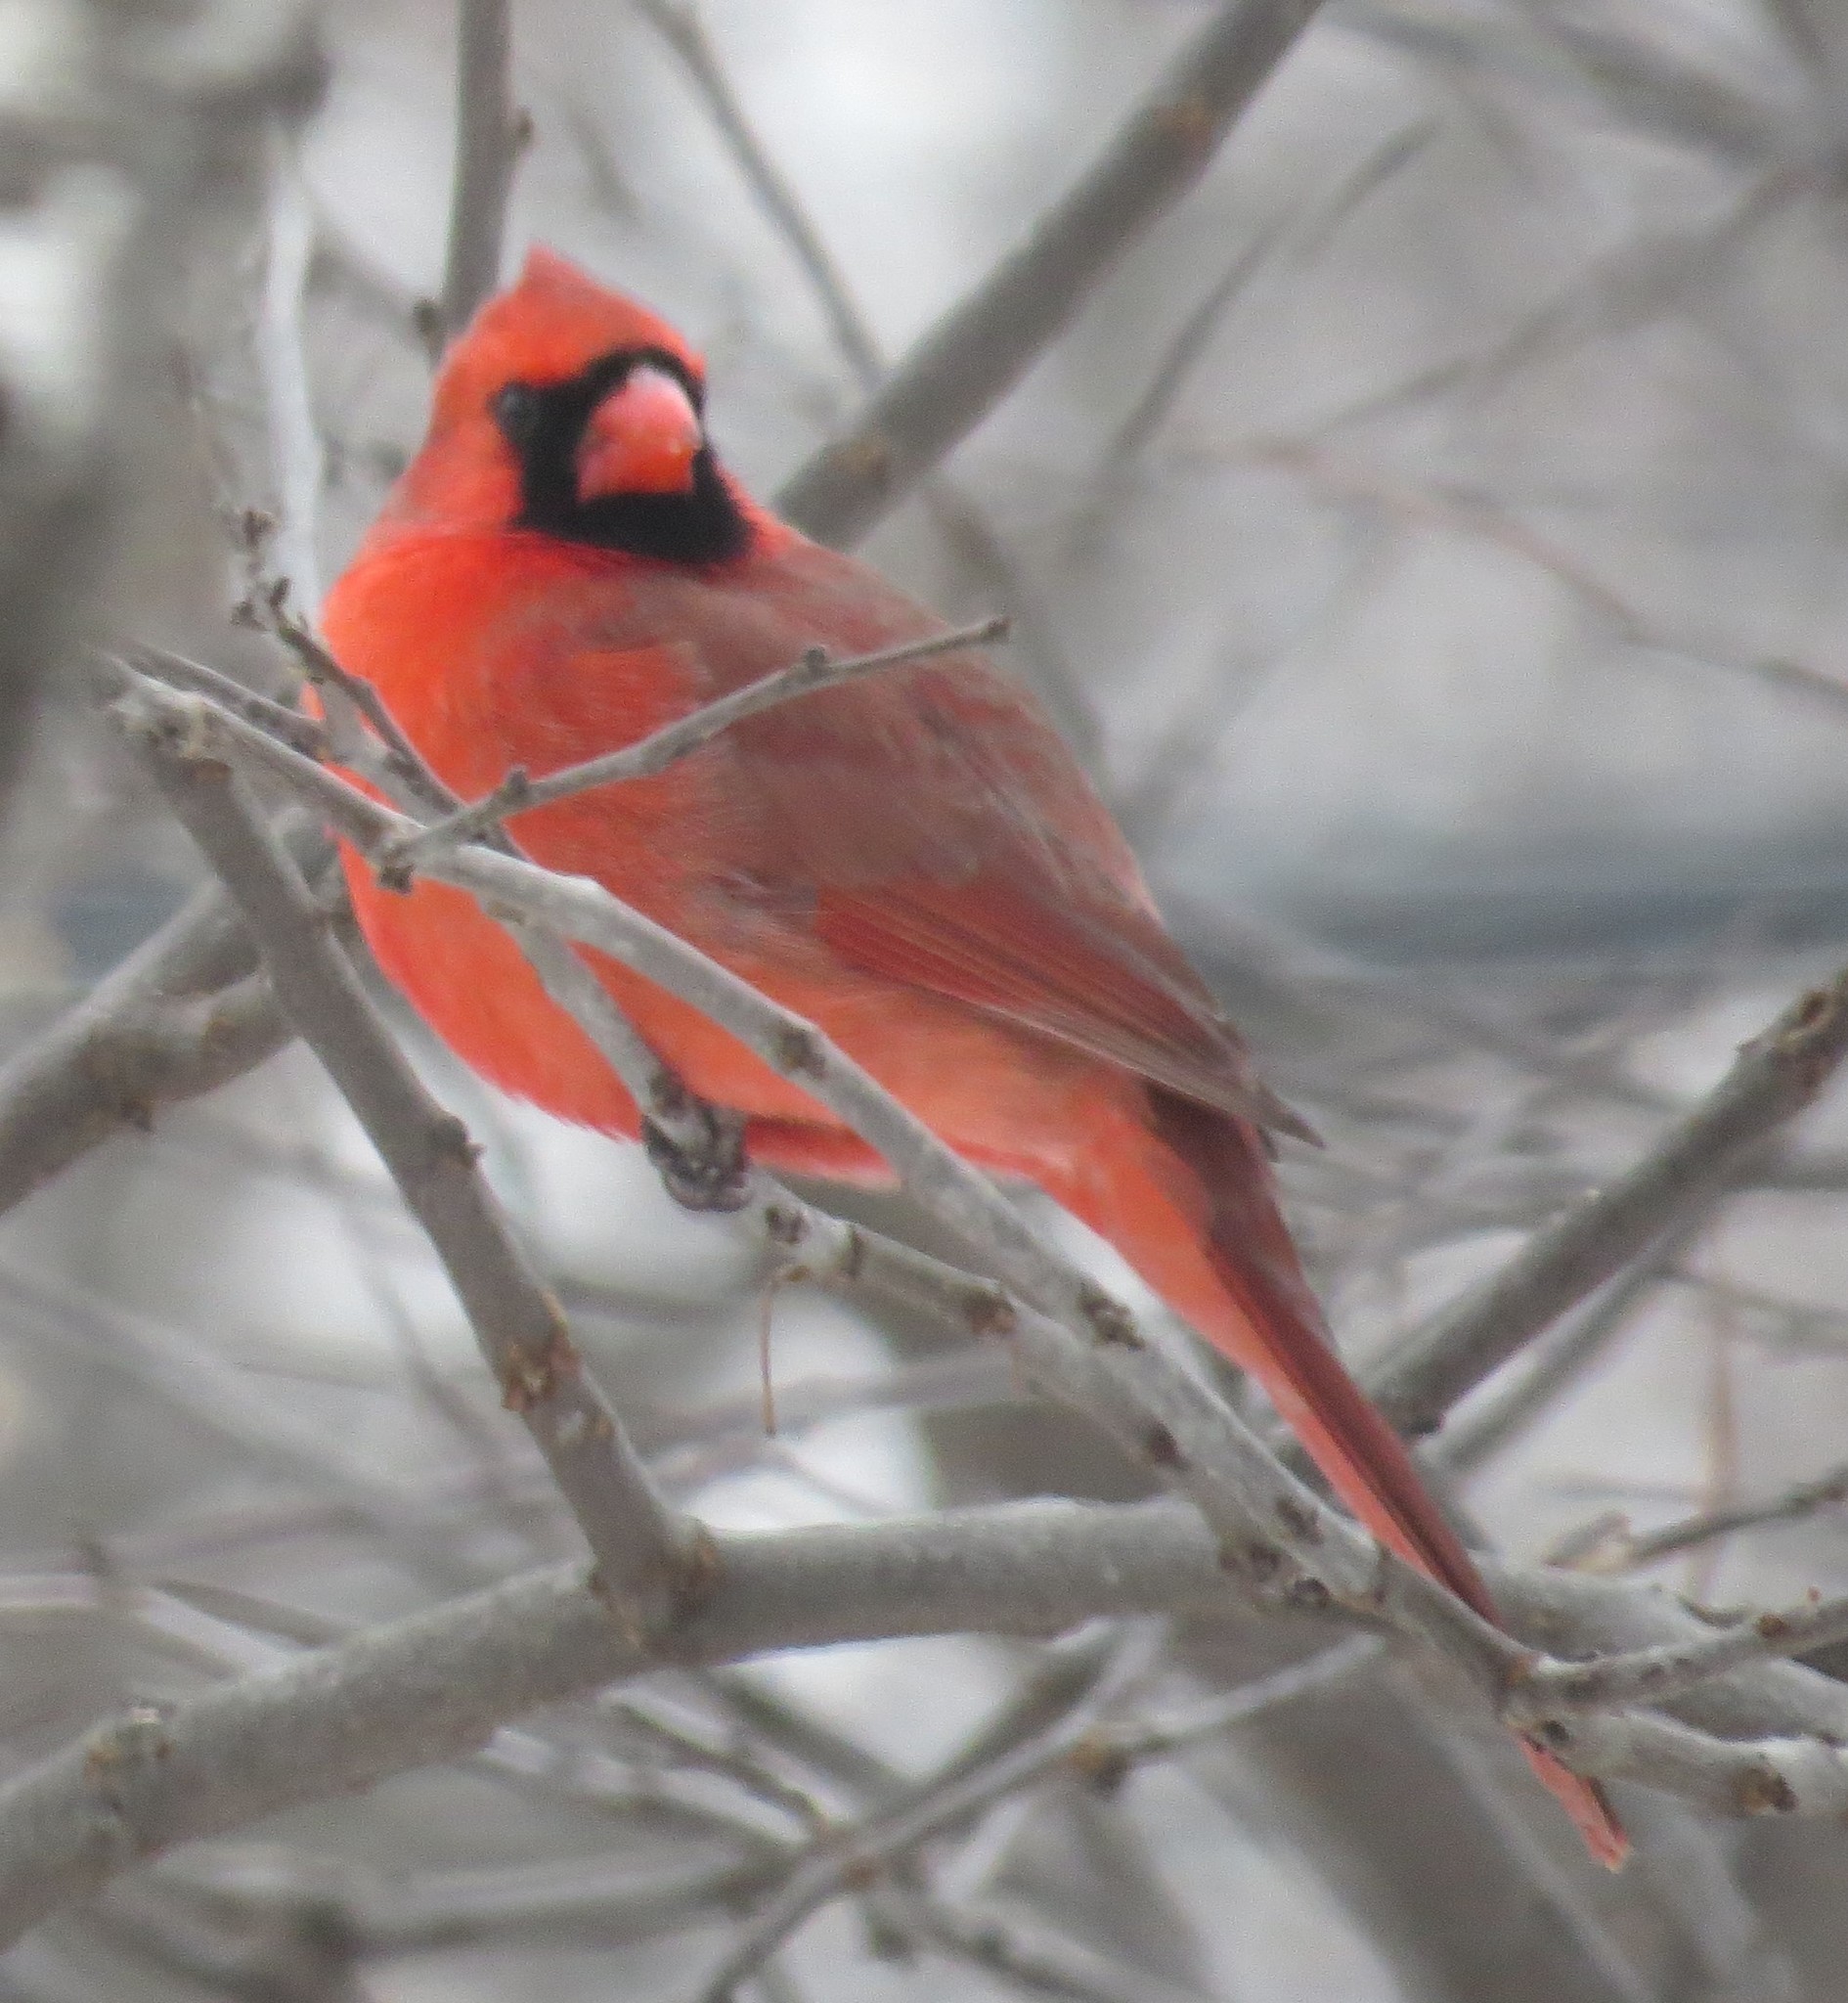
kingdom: Animalia
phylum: Chordata
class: Aves
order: Passeriformes
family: Cardinalidae
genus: Cardinalis
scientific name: Cardinalis cardinalis
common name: Northern cardinal
